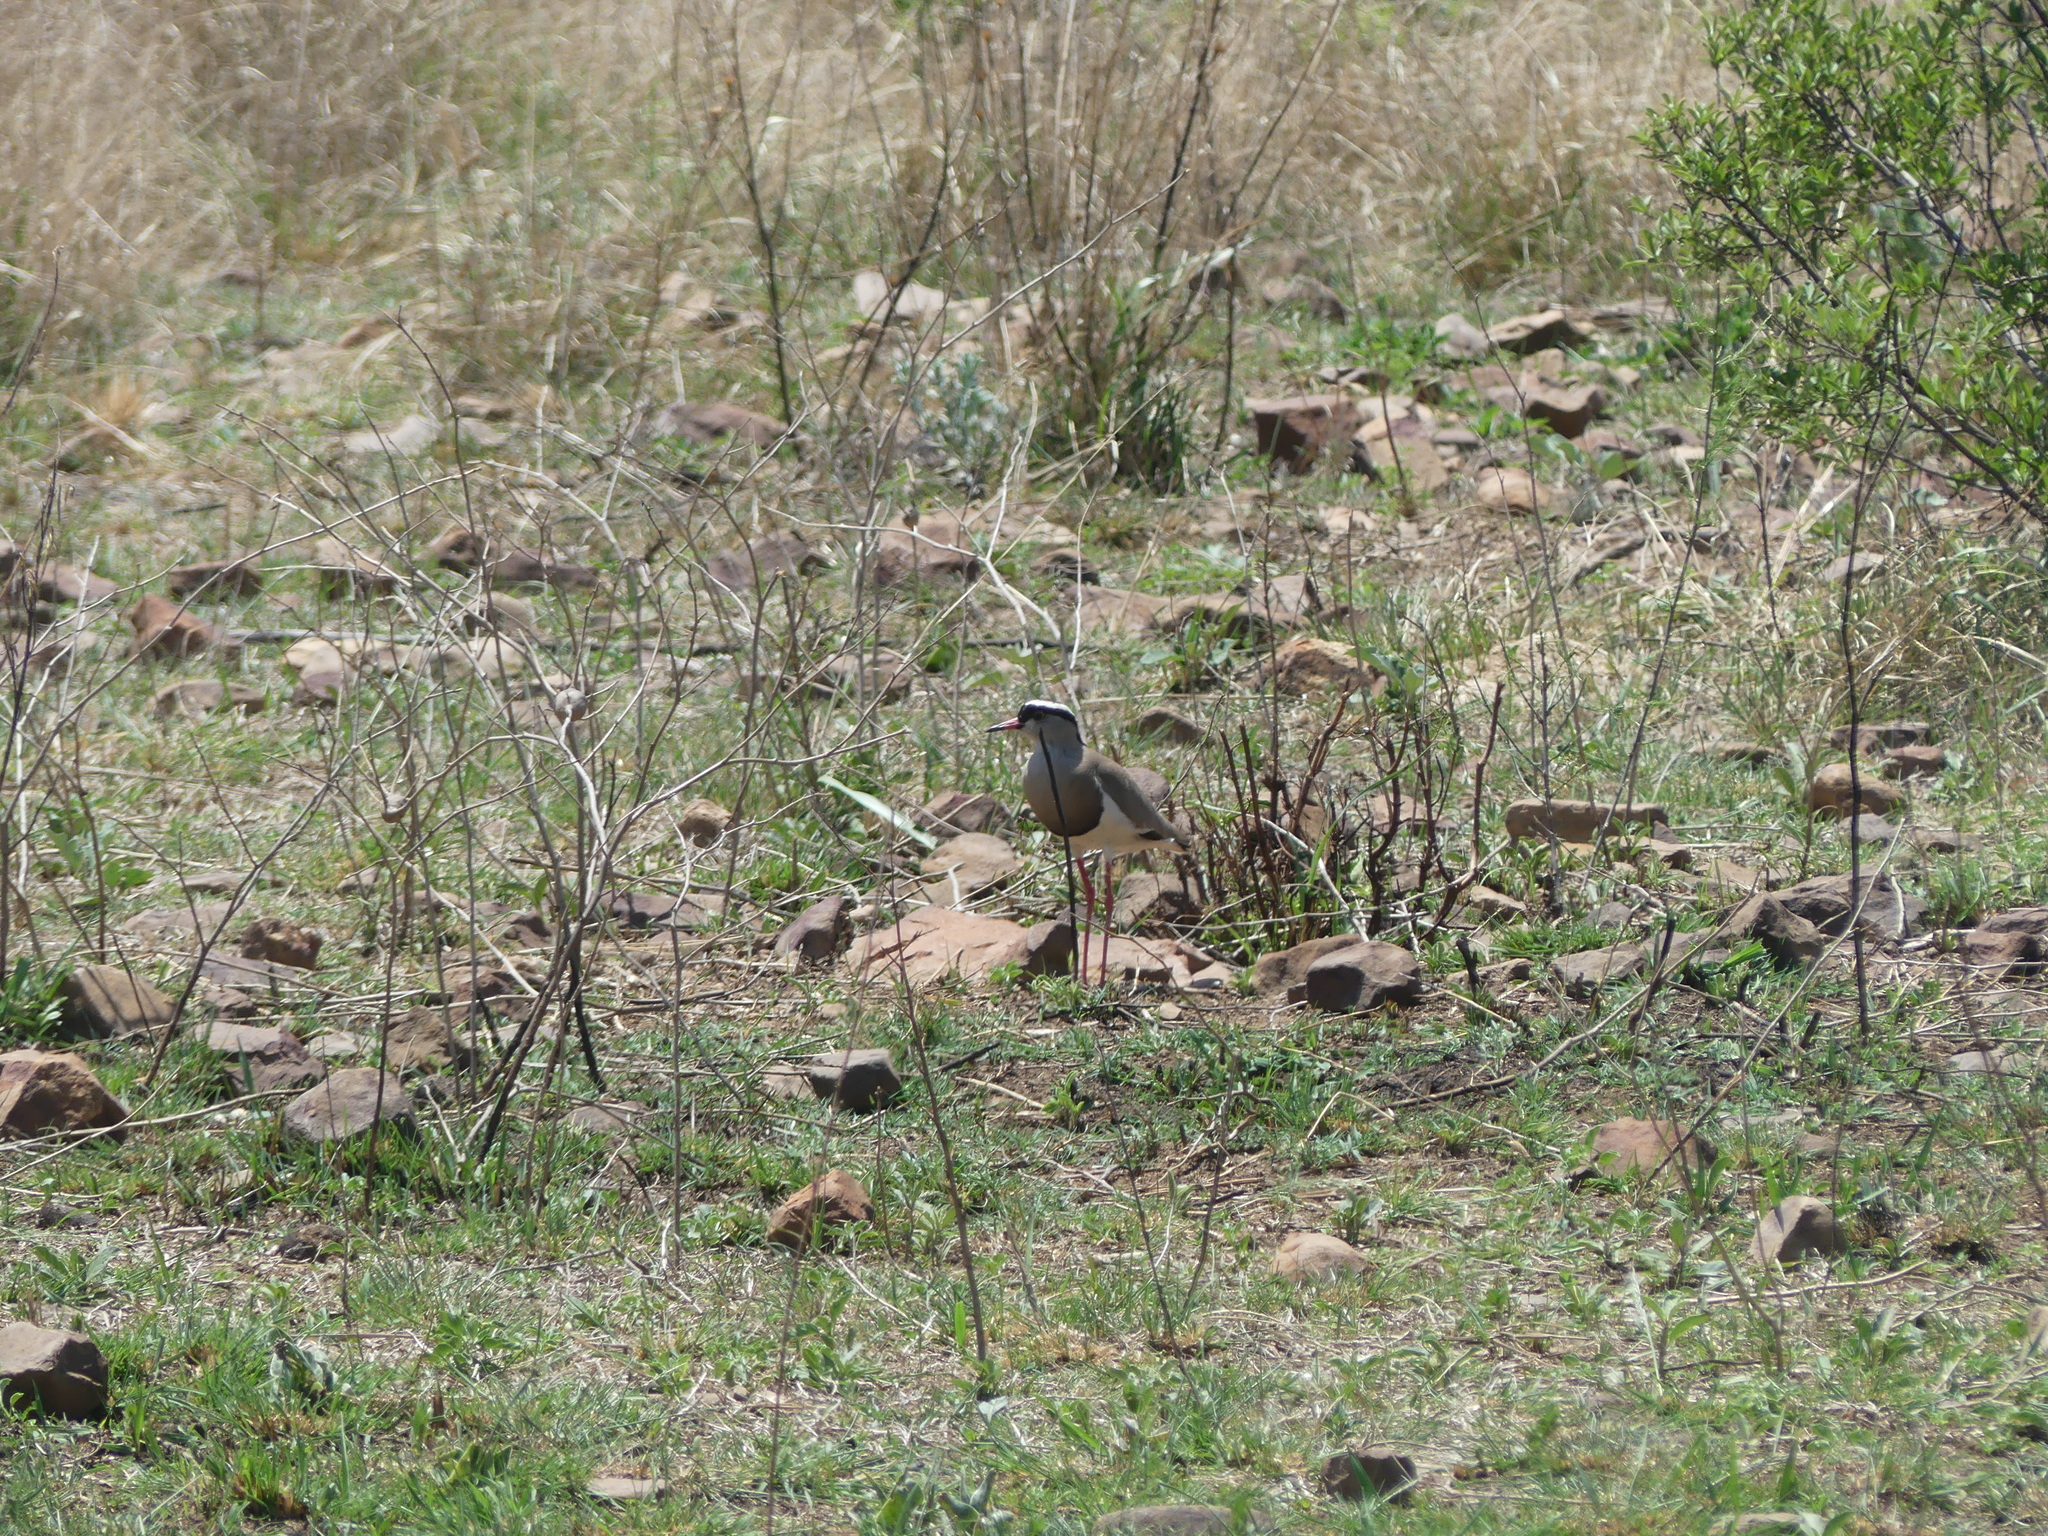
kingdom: Animalia
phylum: Chordata
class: Aves
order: Charadriiformes
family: Charadriidae
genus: Vanellus
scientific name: Vanellus coronatus
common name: Crowned lapwing
